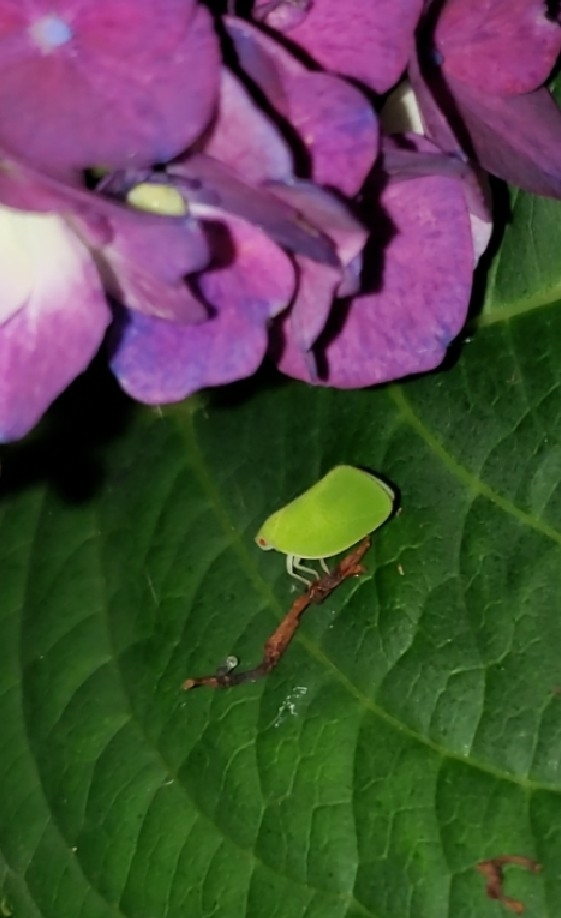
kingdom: Animalia
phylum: Arthropoda
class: Insecta
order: Hemiptera
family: Acanaloniidae
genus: Acanalonia
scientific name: Acanalonia conica
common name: Green cone-headed planthopper
